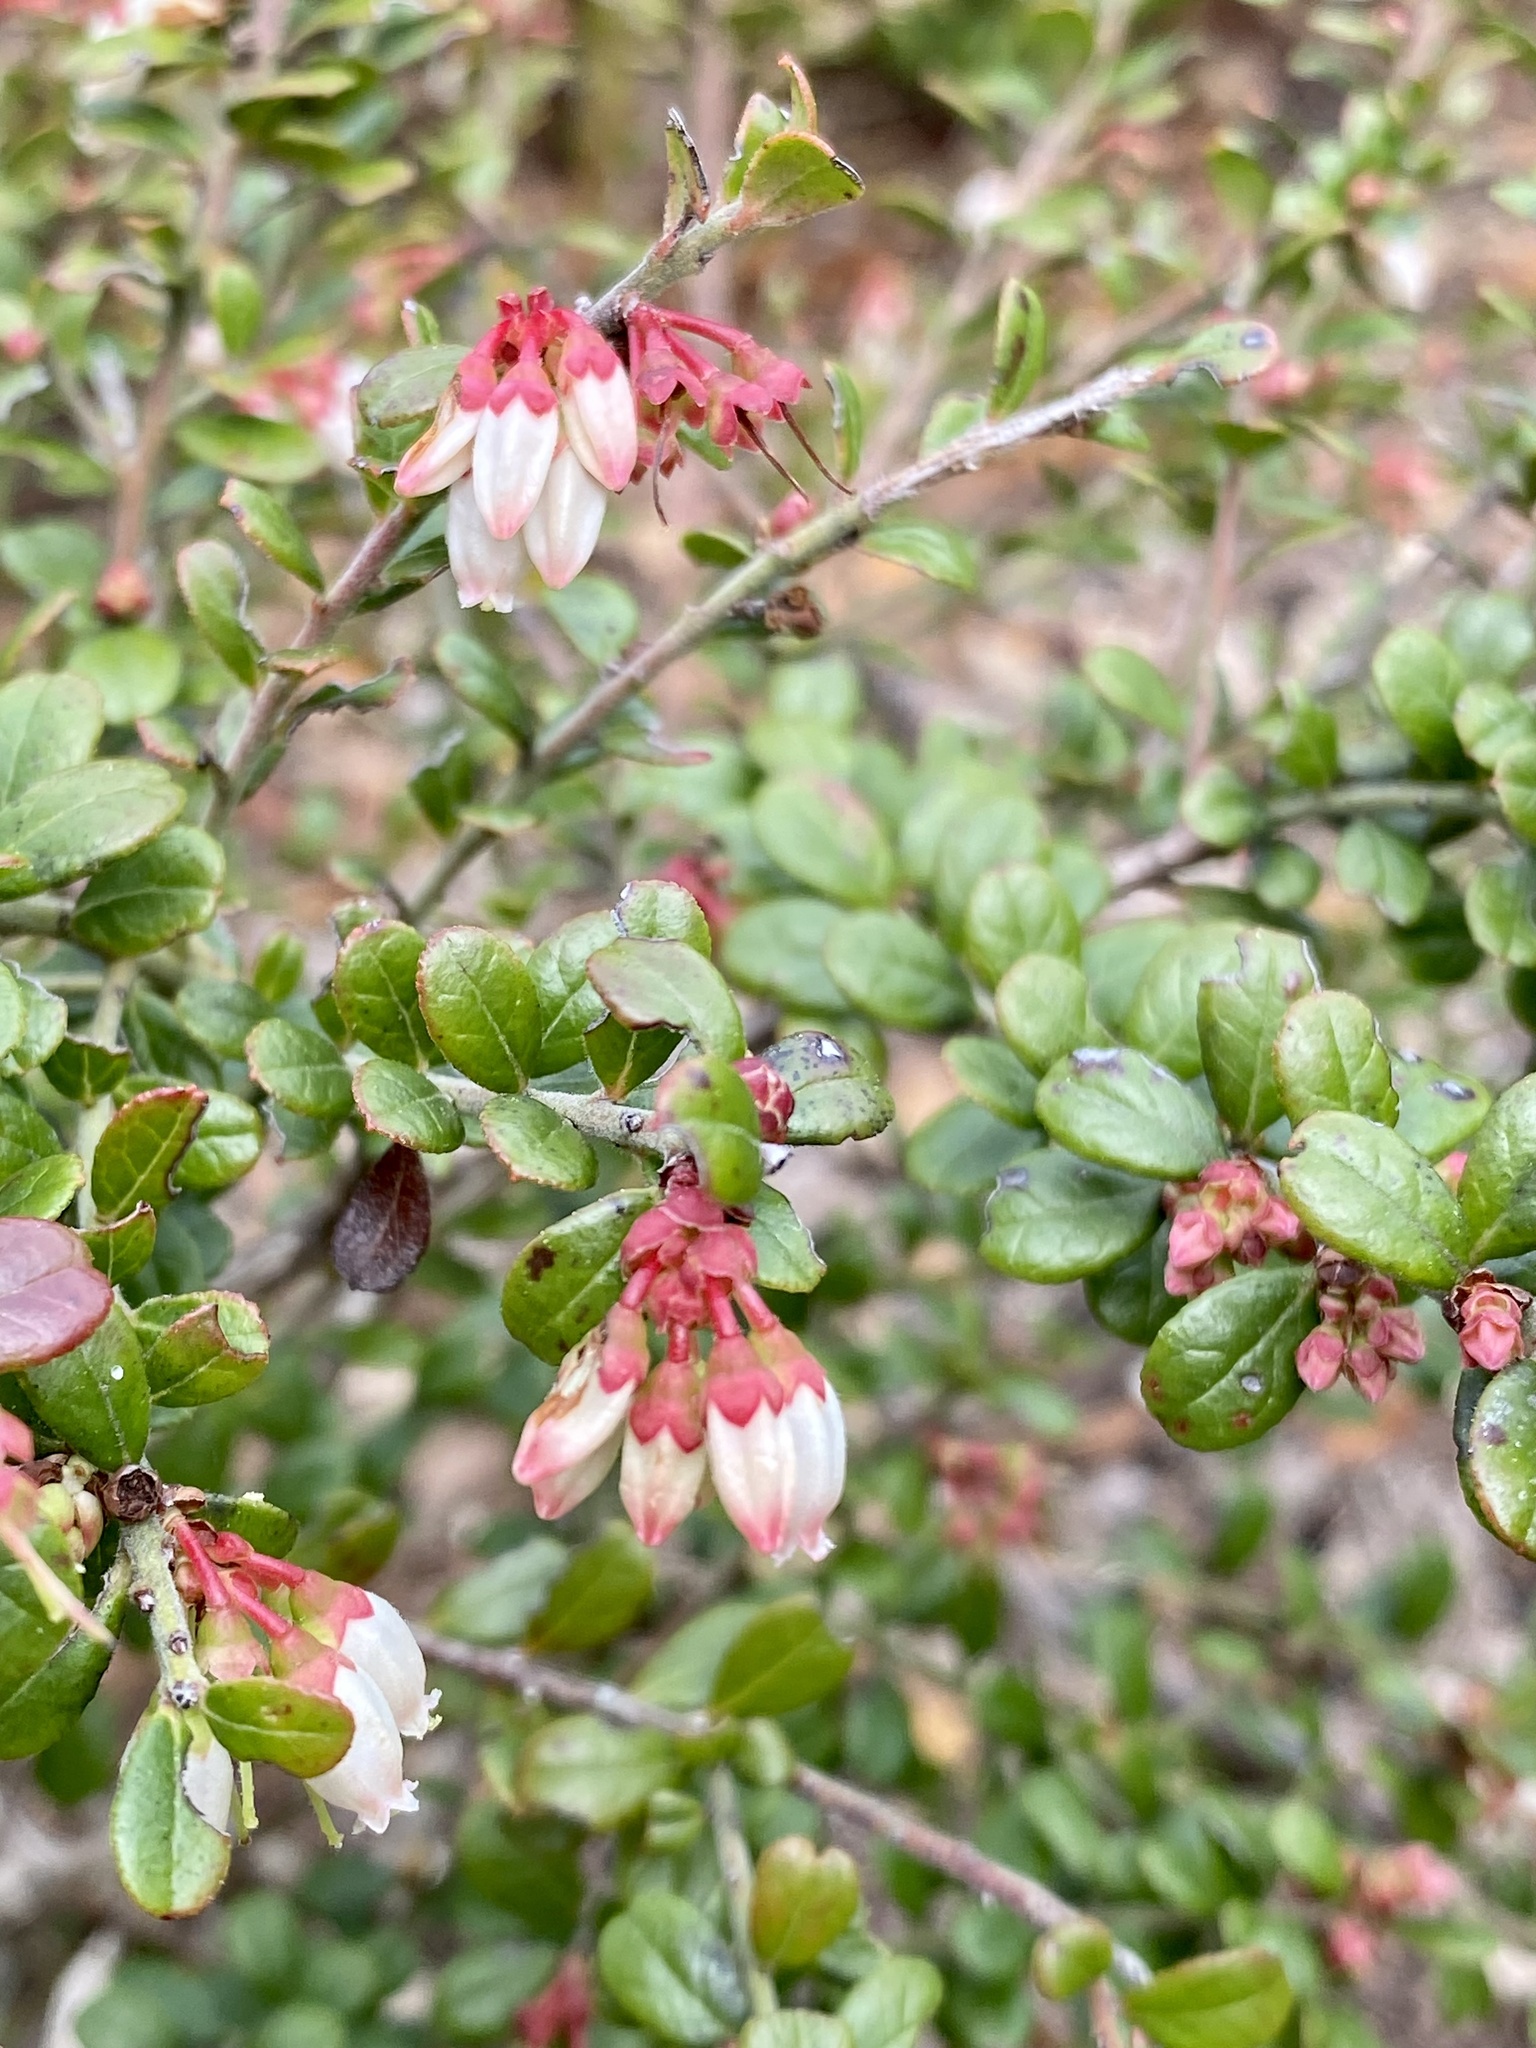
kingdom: Plantae
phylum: Tracheophyta
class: Magnoliopsida
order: Ericales
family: Ericaceae
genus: Vaccinium
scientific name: Vaccinium myrsinites
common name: Evergreen blueberry
